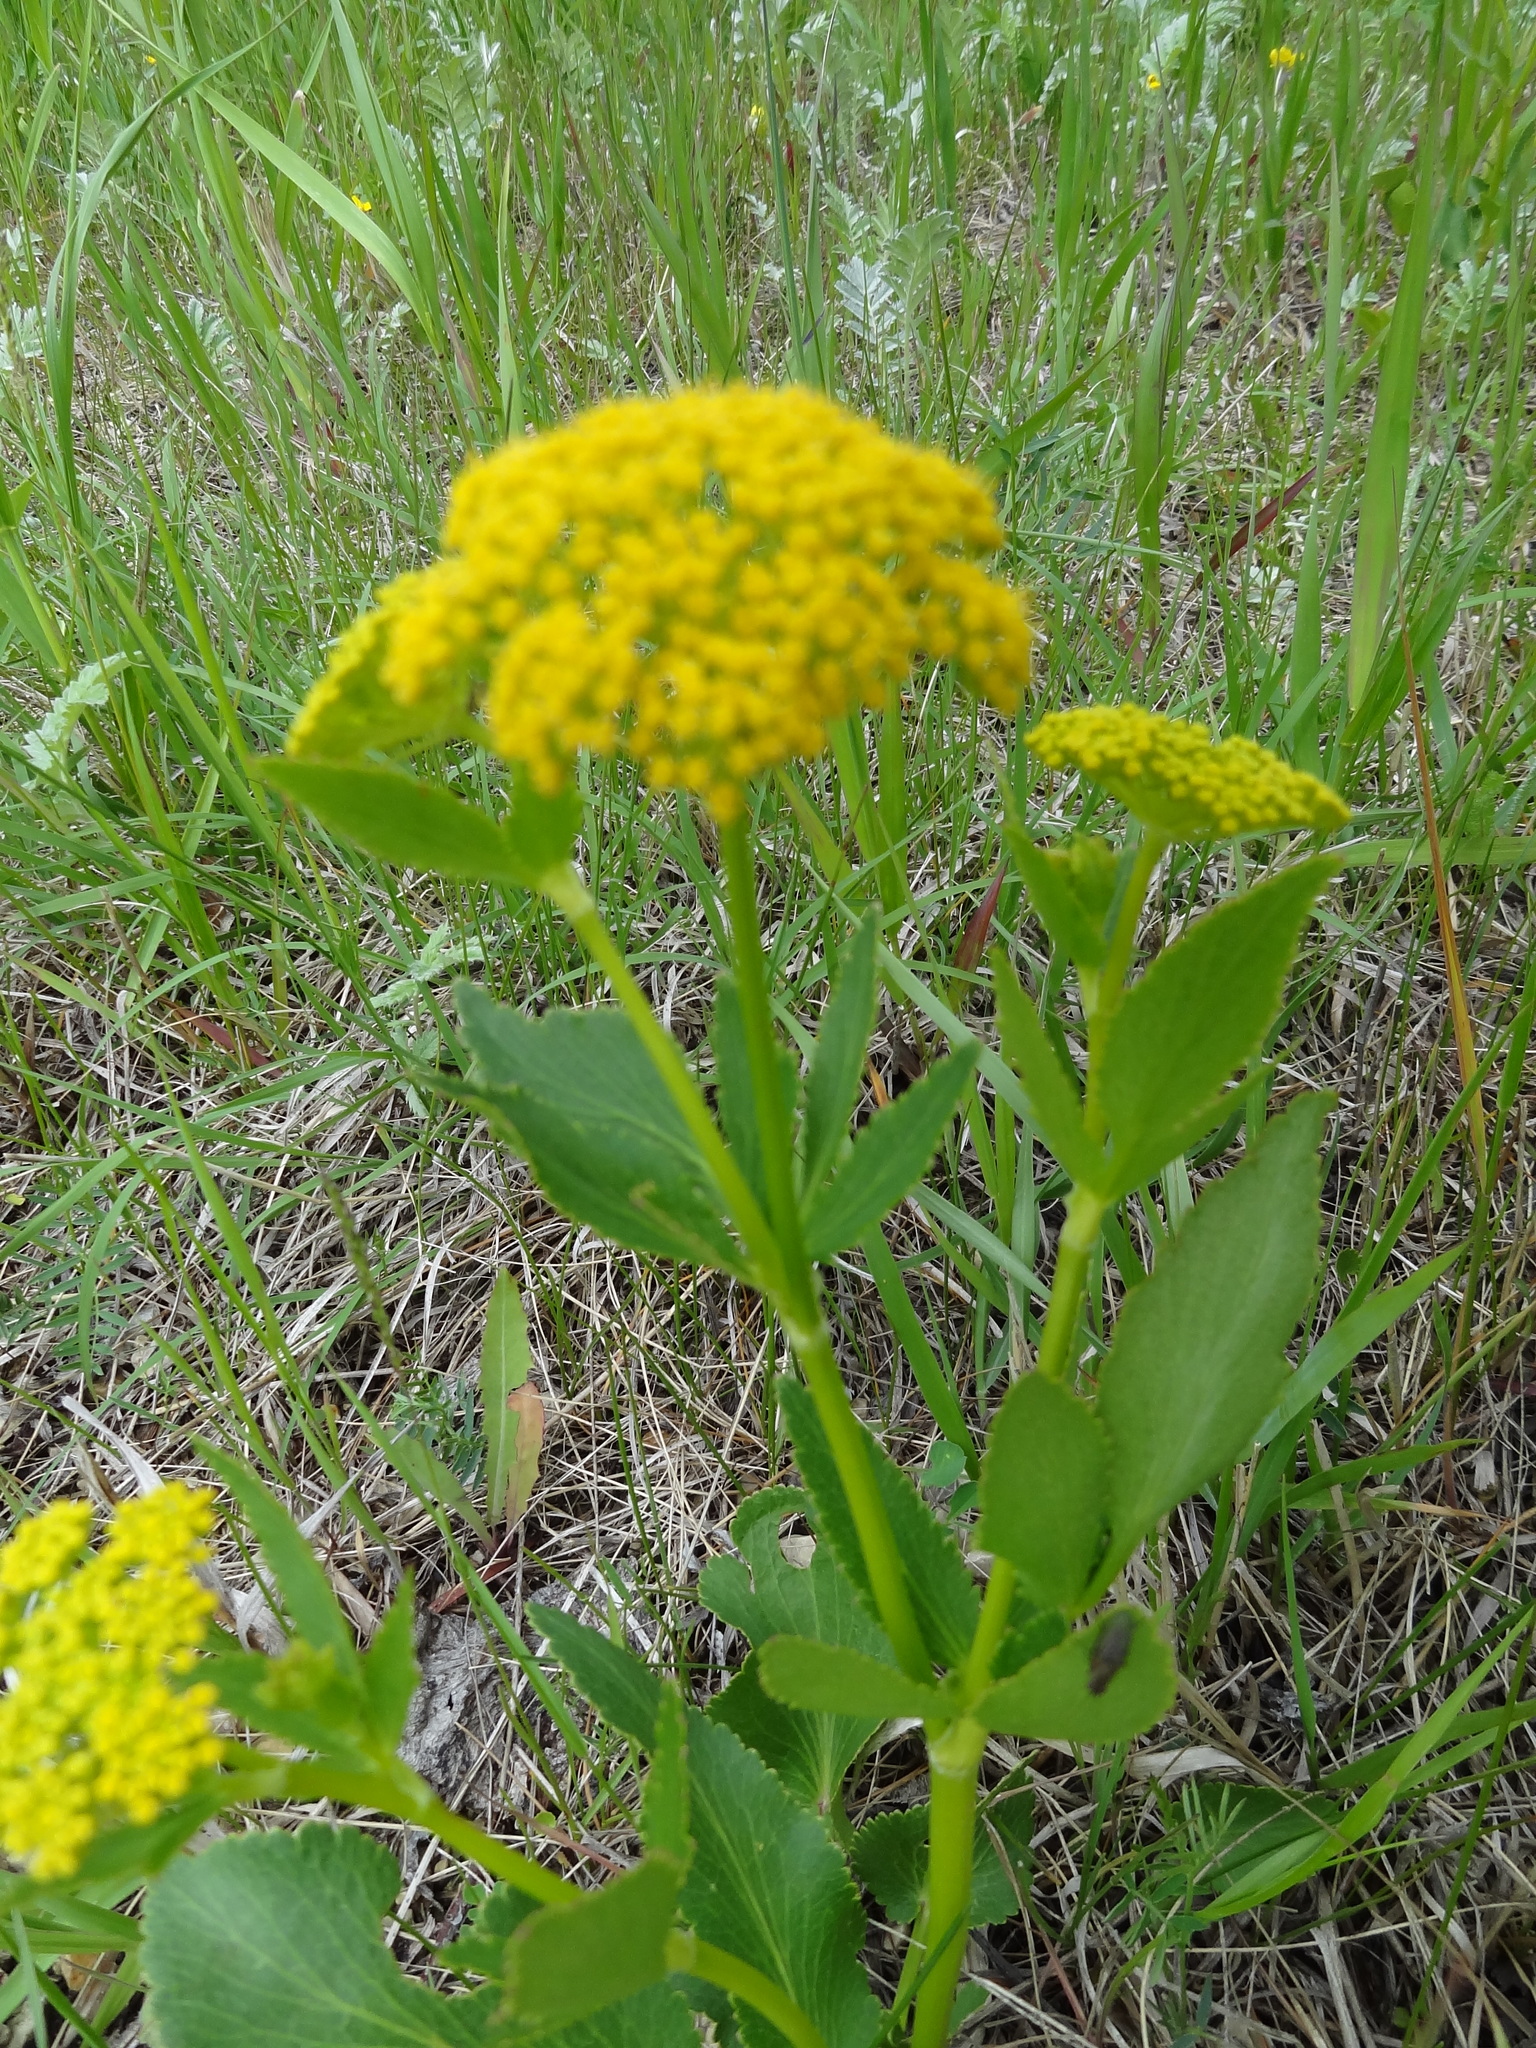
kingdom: Plantae
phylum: Tracheophyta
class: Magnoliopsida
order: Apiales
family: Apiaceae
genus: Zizia
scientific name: Zizia aptera
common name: Heart-leaved alexanders
